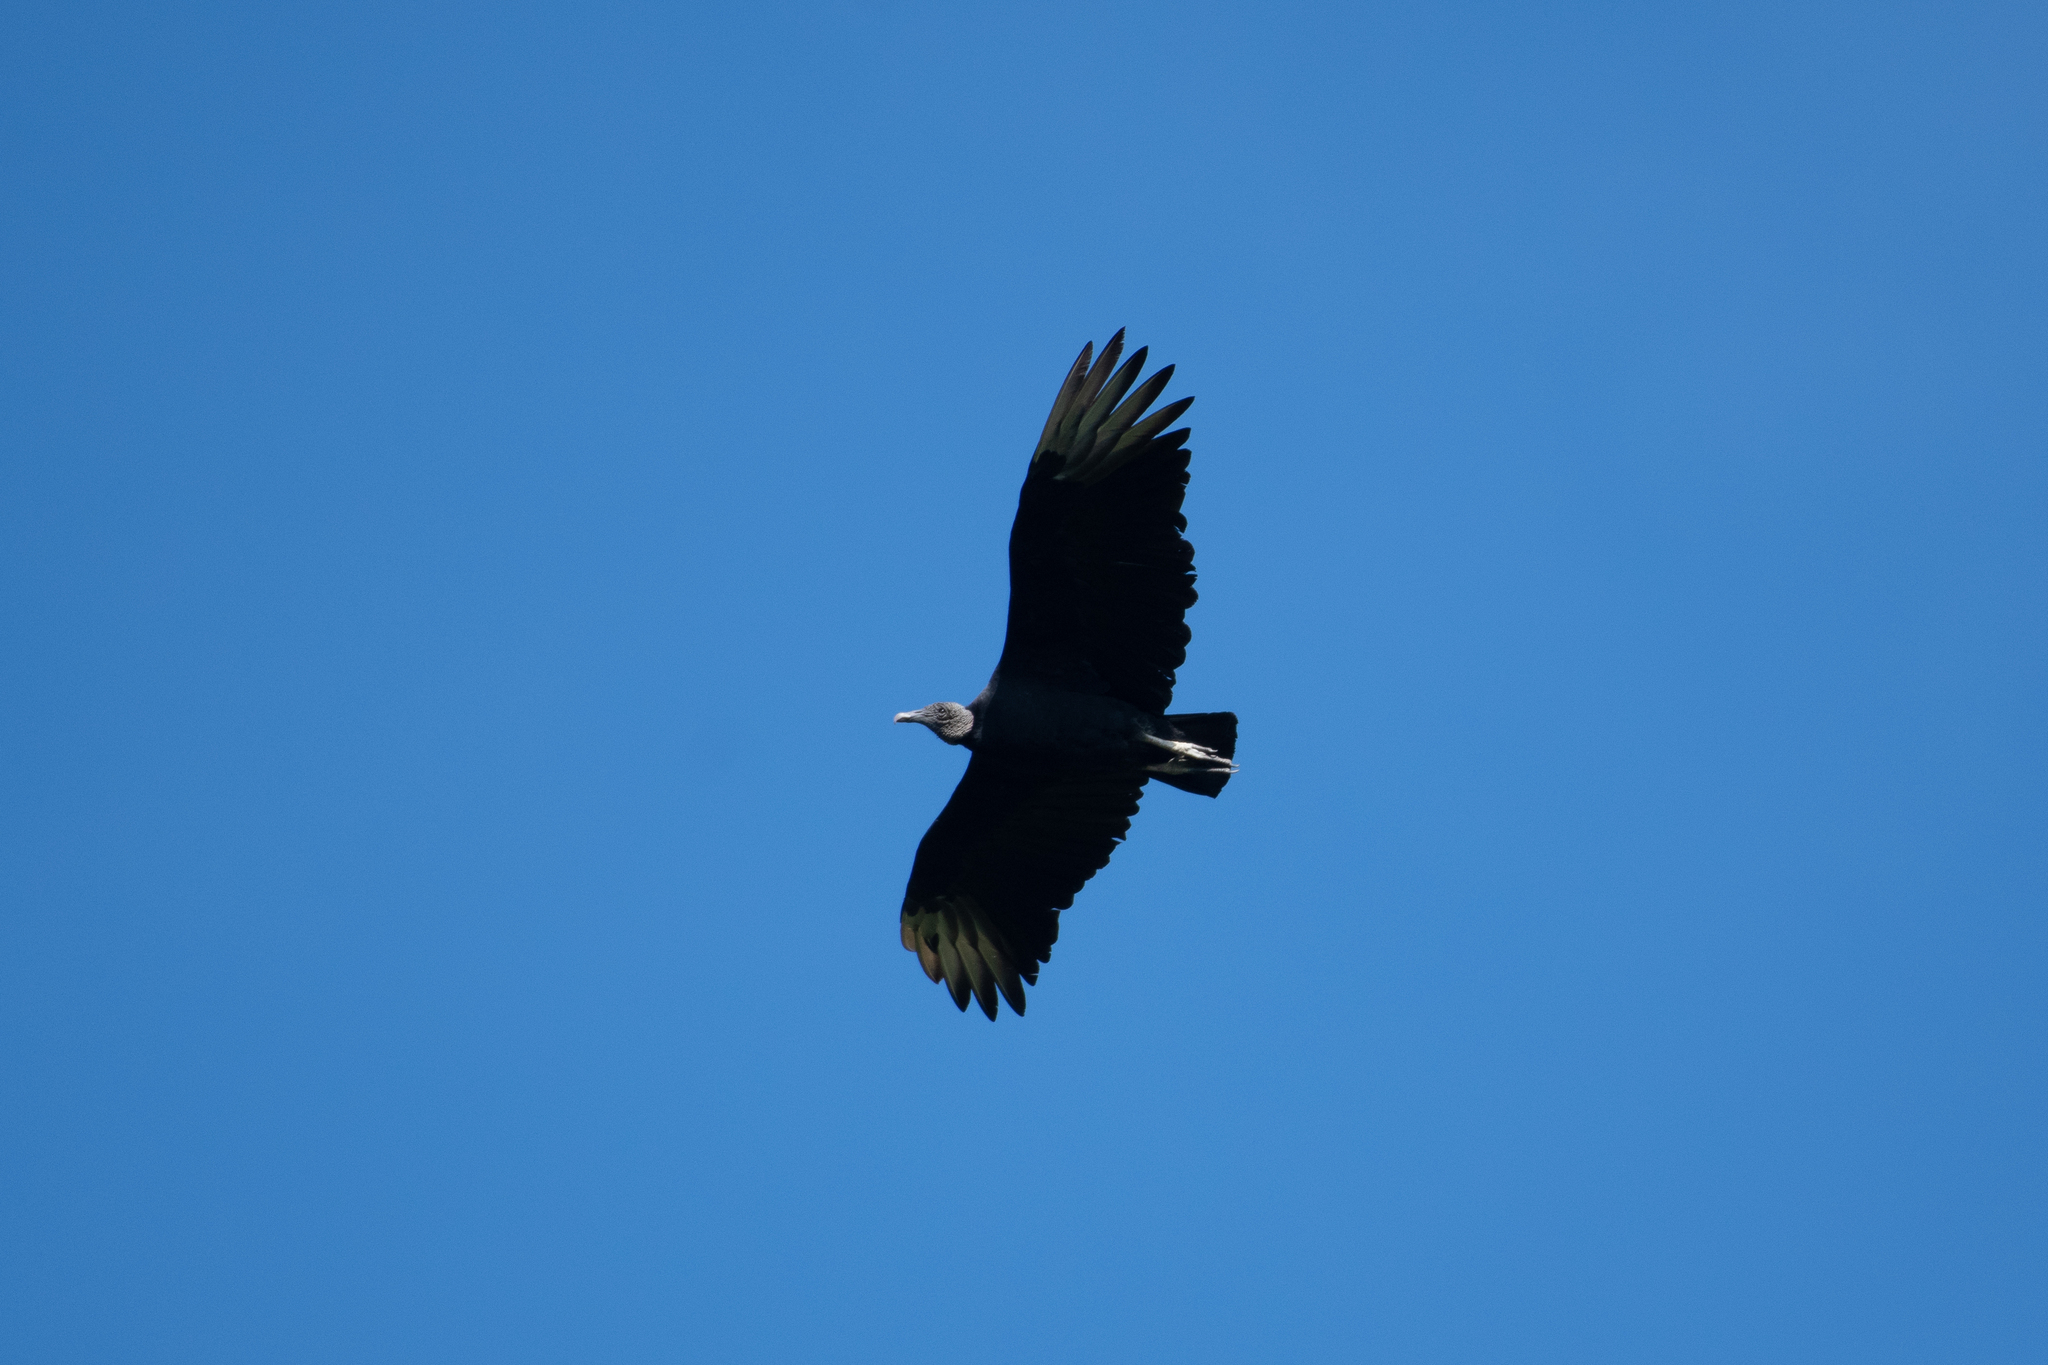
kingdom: Animalia
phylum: Chordata
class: Aves
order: Accipitriformes
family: Cathartidae
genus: Coragyps
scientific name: Coragyps atratus
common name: Black vulture
